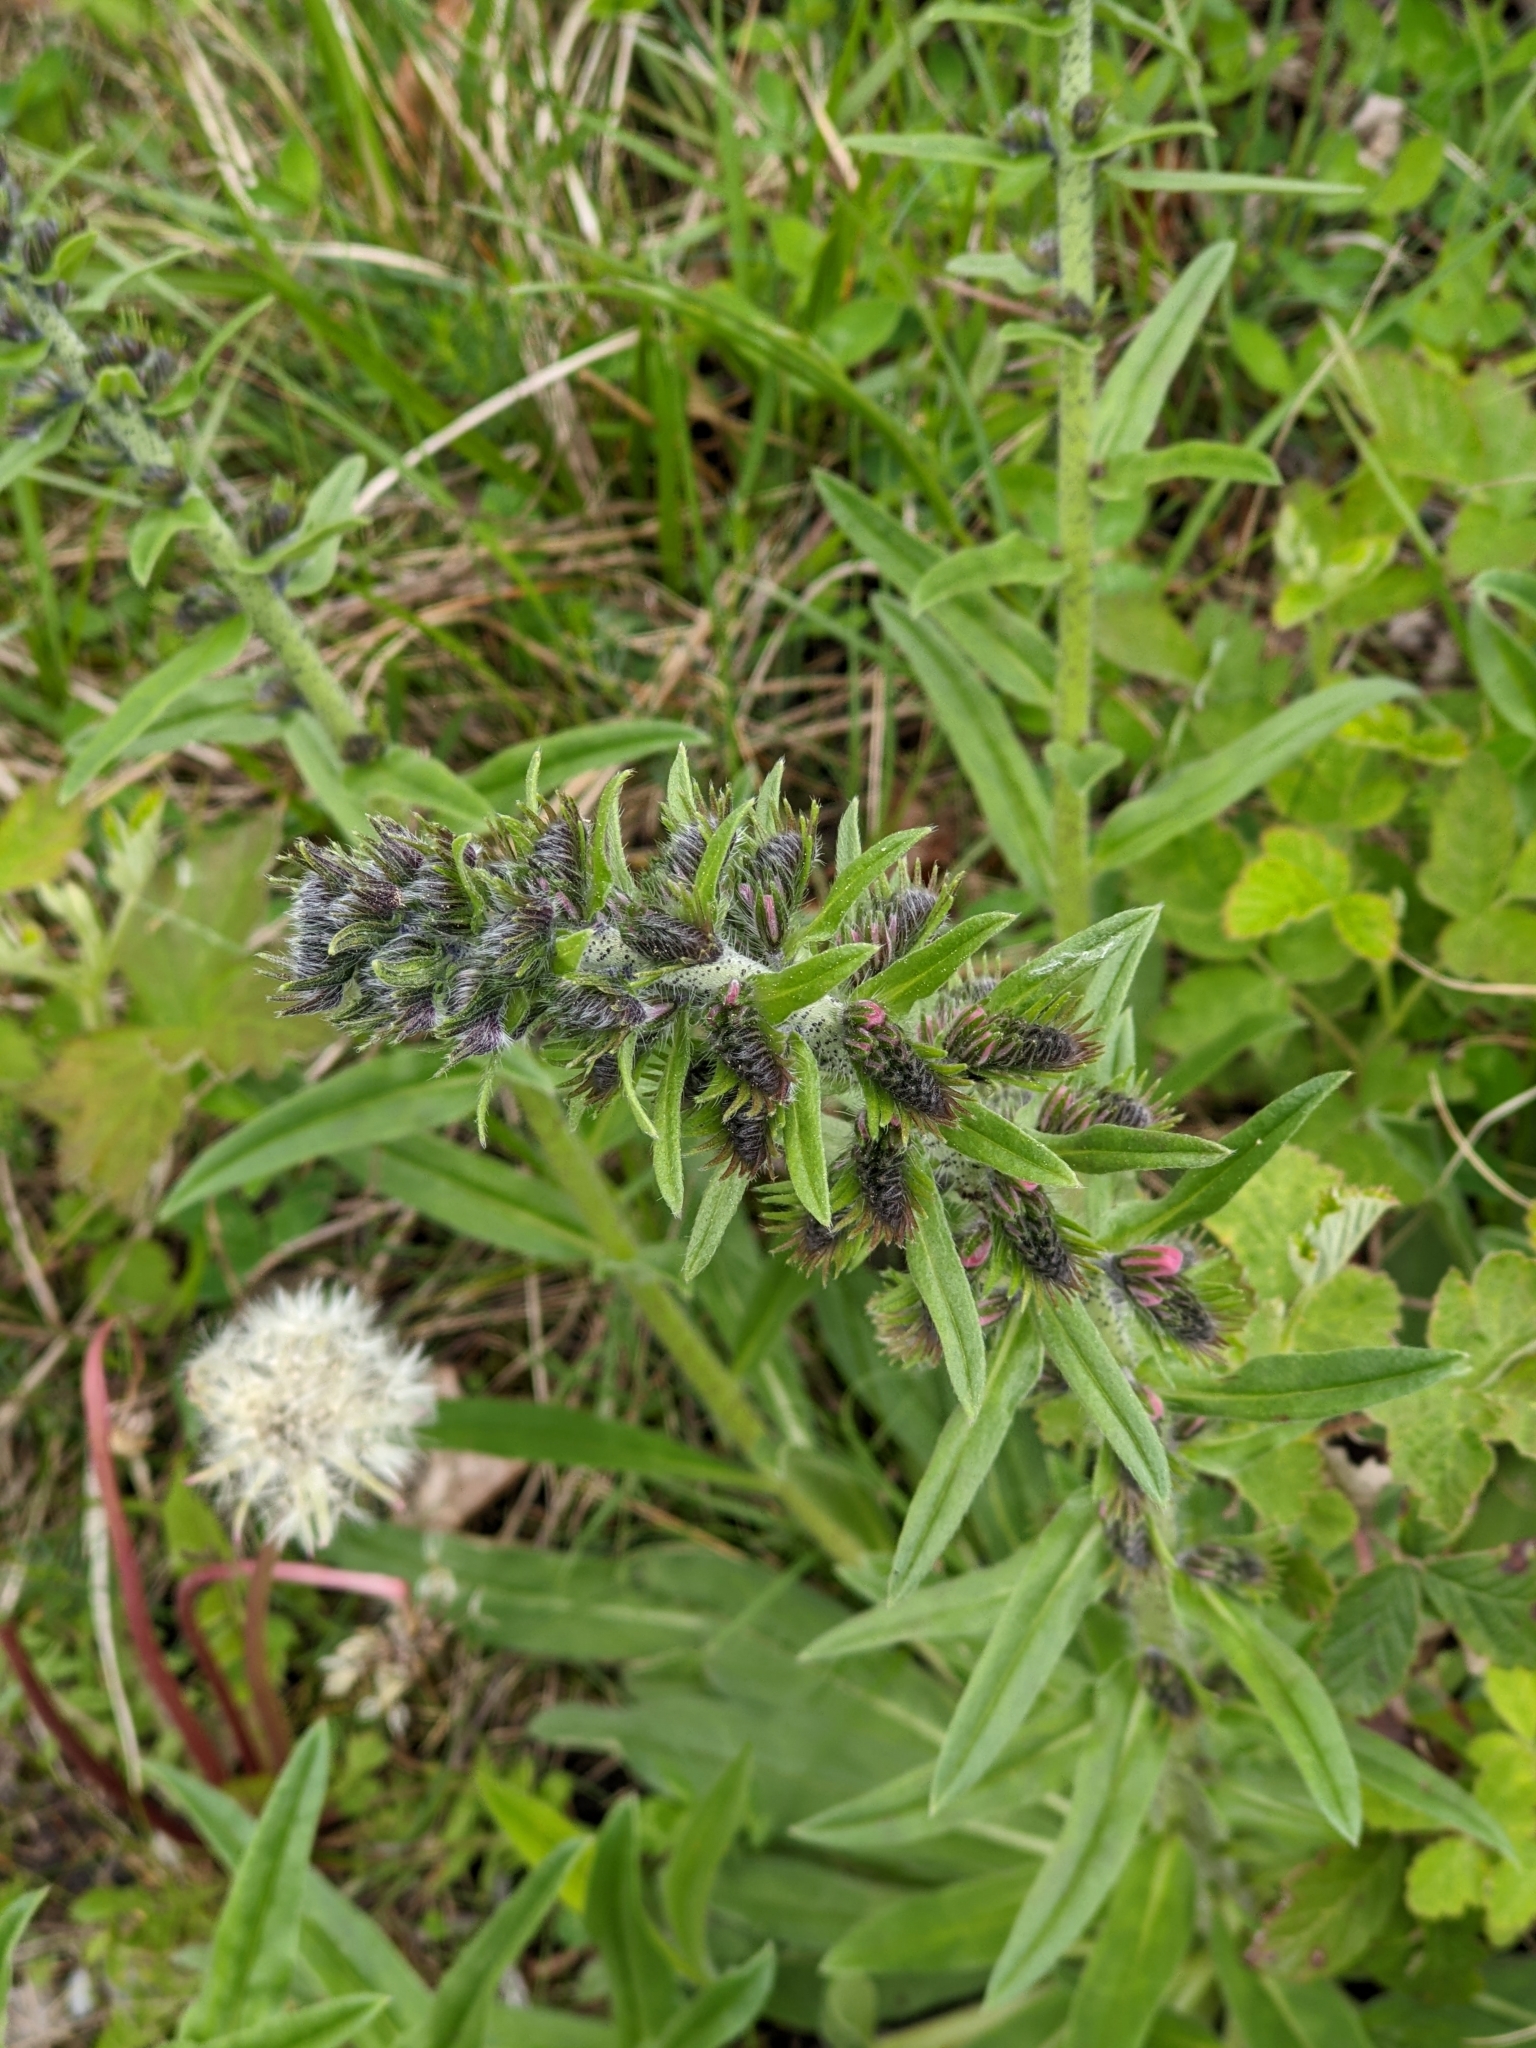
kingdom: Plantae
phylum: Tracheophyta
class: Magnoliopsida
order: Boraginales
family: Boraginaceae
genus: Echium
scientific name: Echium vulgare
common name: Common viper's bugloss
